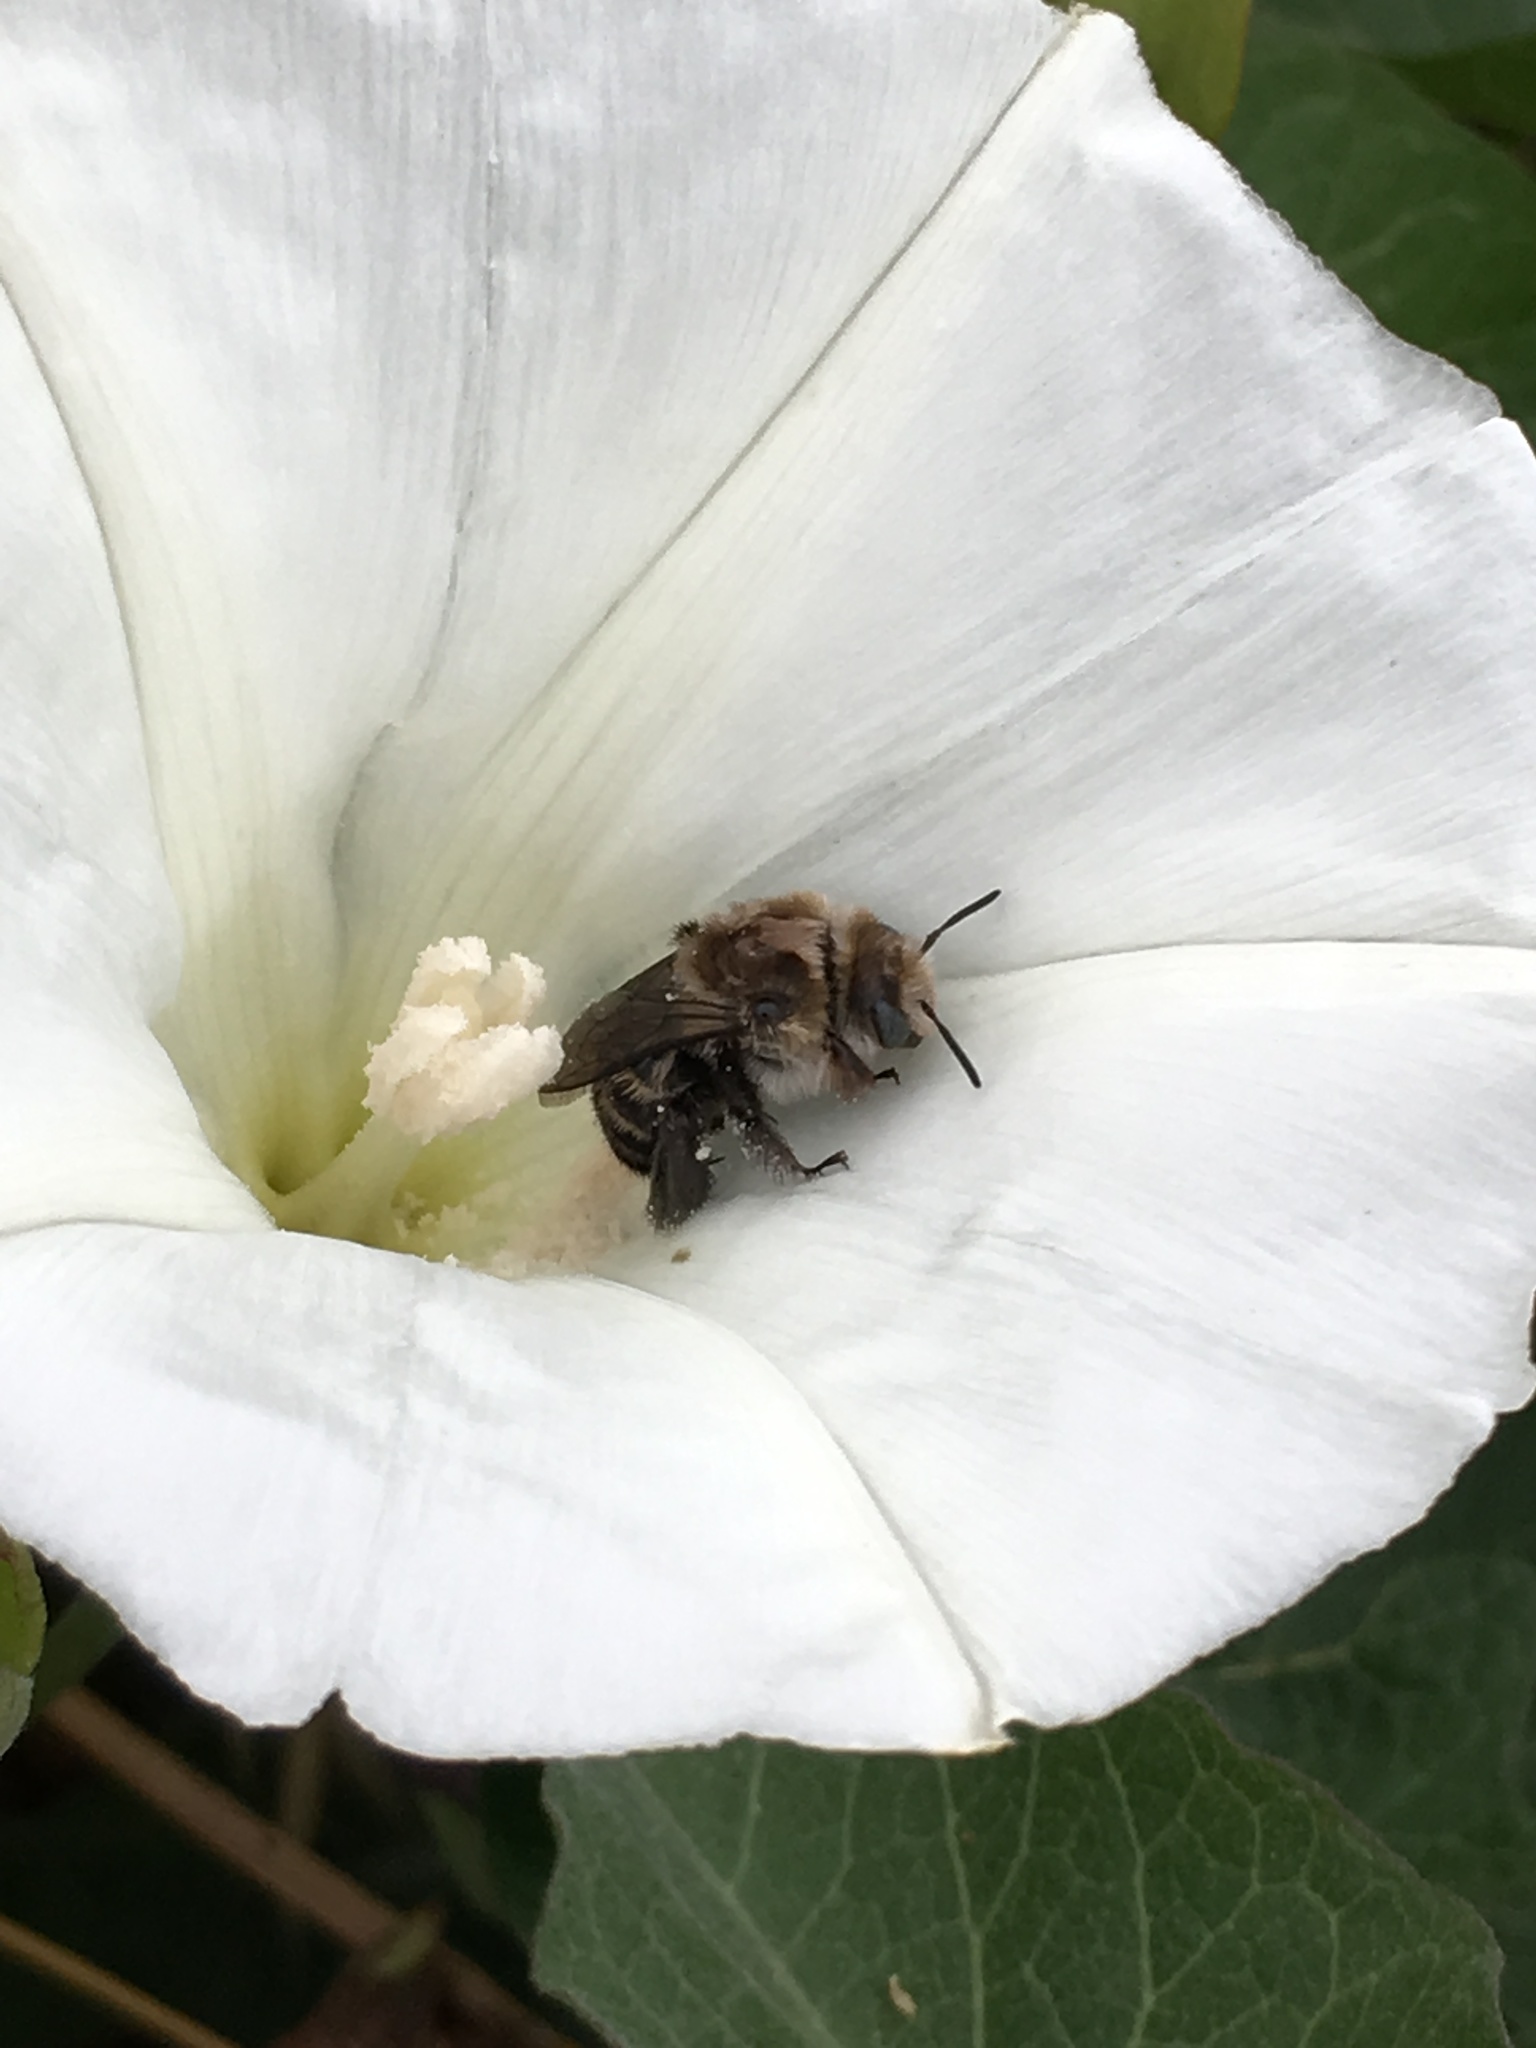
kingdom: Animalia
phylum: Arthropoda
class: Insecta
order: Hymenoptera
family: Apidae
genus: Diadasia
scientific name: Diadasia bituberculata
